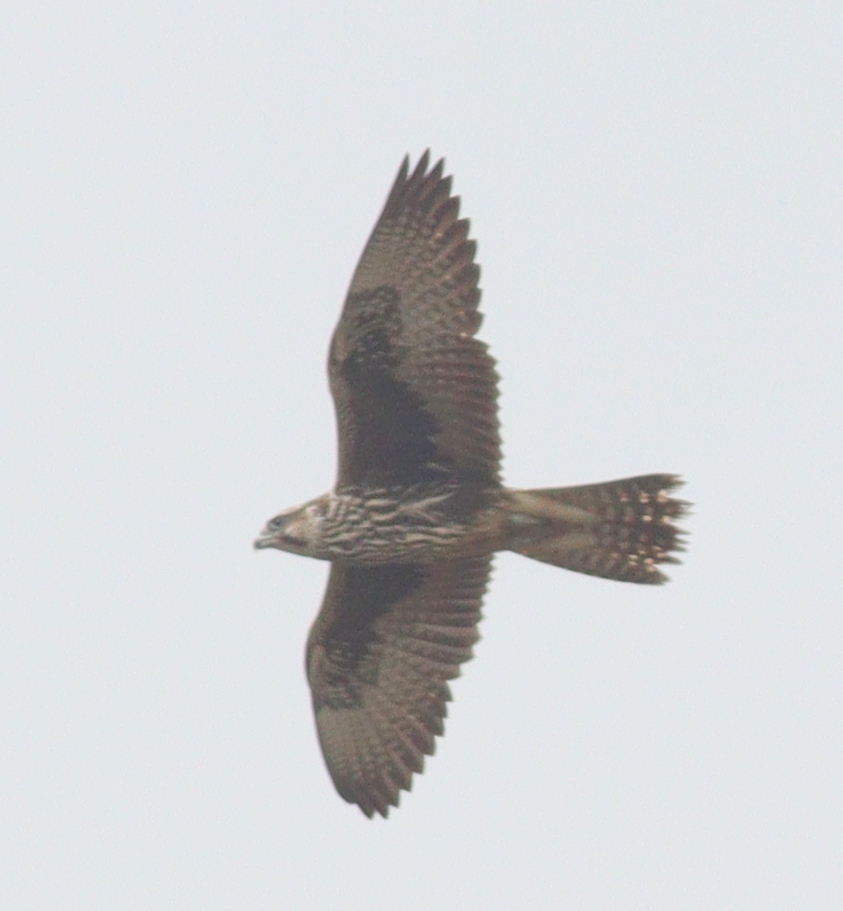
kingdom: Animalia
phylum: Chordata
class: Aves
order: Falconiformes
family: Falconidae
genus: Falco
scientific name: Falco cherrug
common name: Saker falcon
